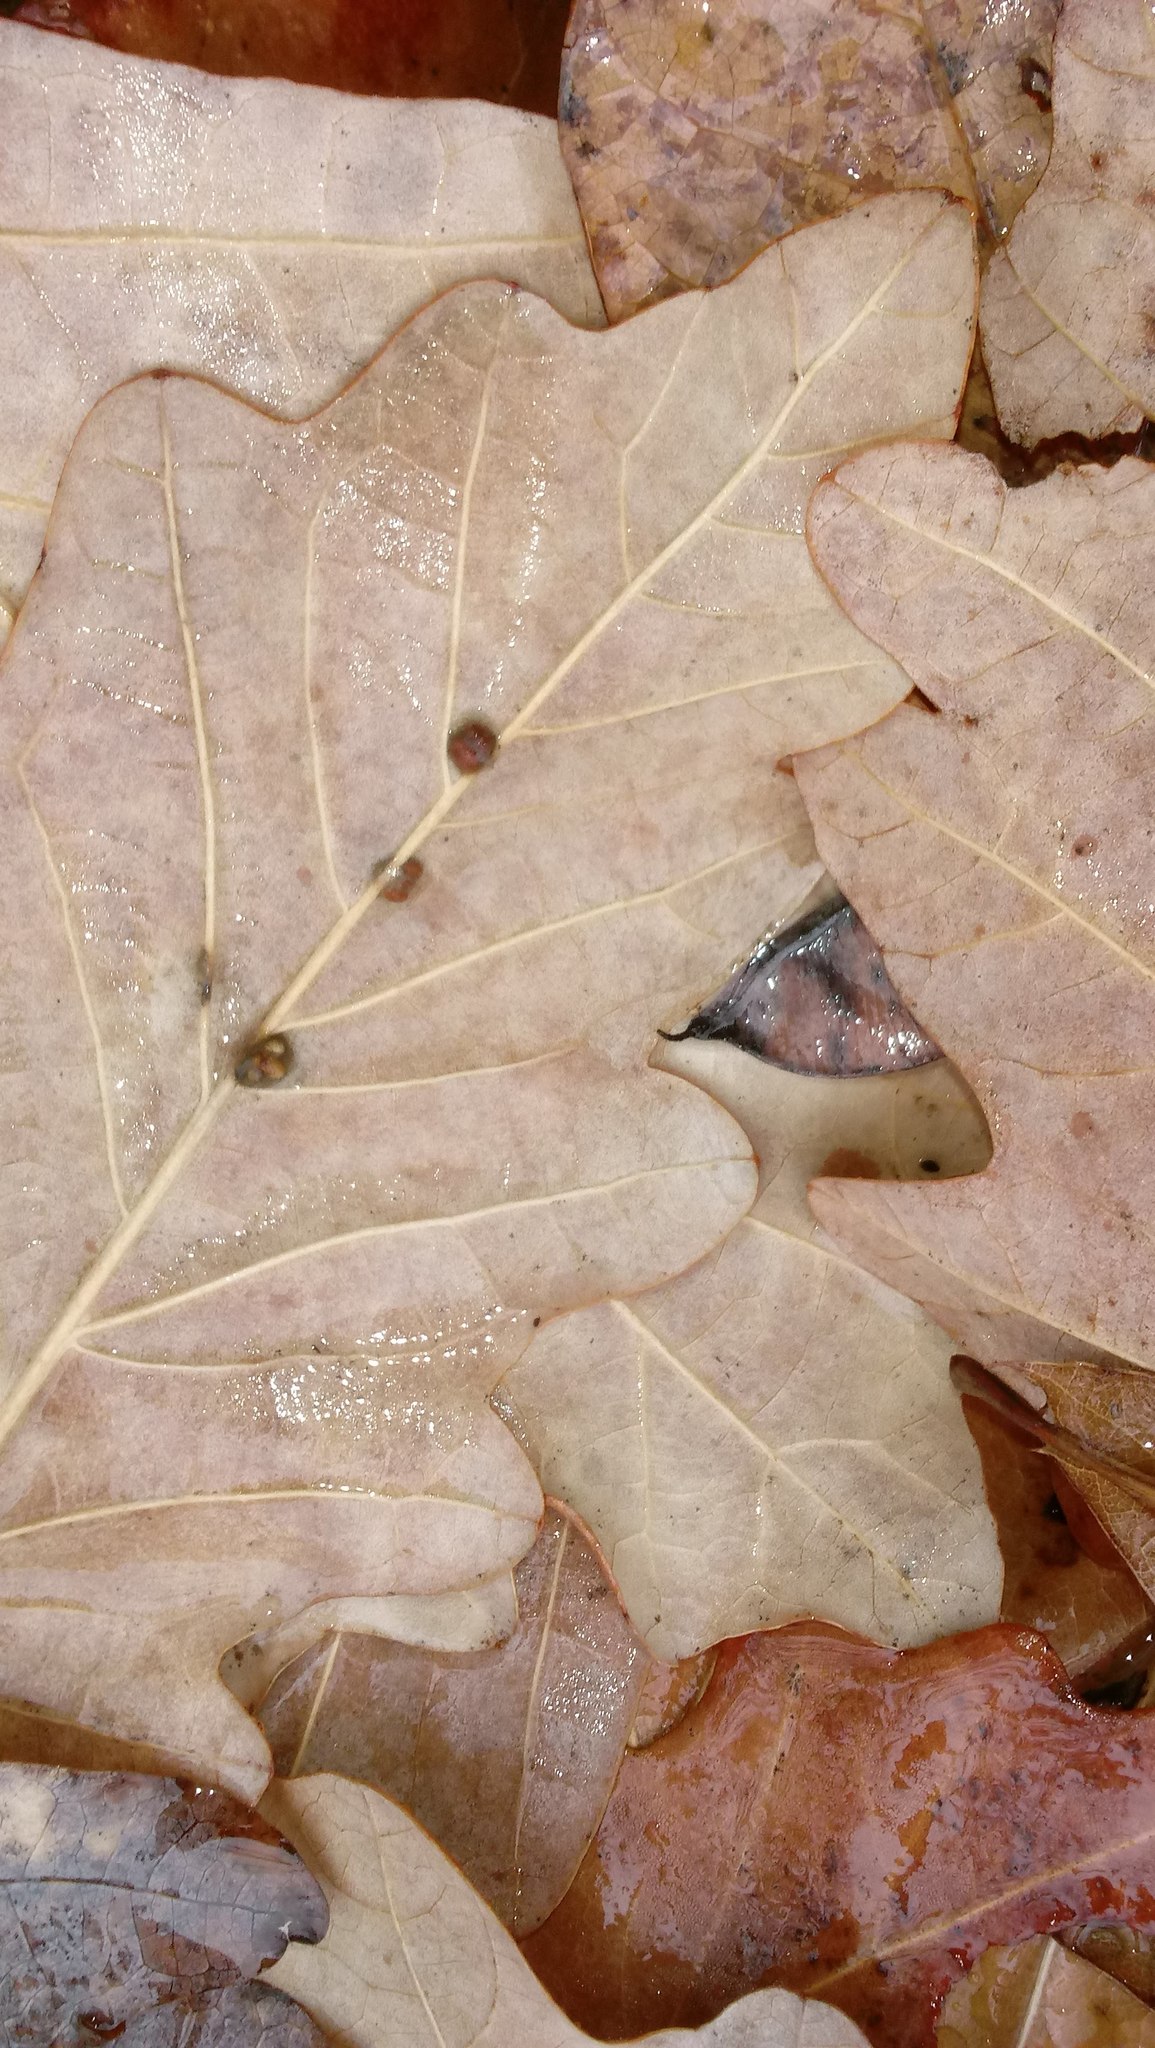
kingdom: Animalia
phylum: Arthropoda
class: Insecta
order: Hymenoptera
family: Cynipidae
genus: Andricus
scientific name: Andricus Druon ignotum
